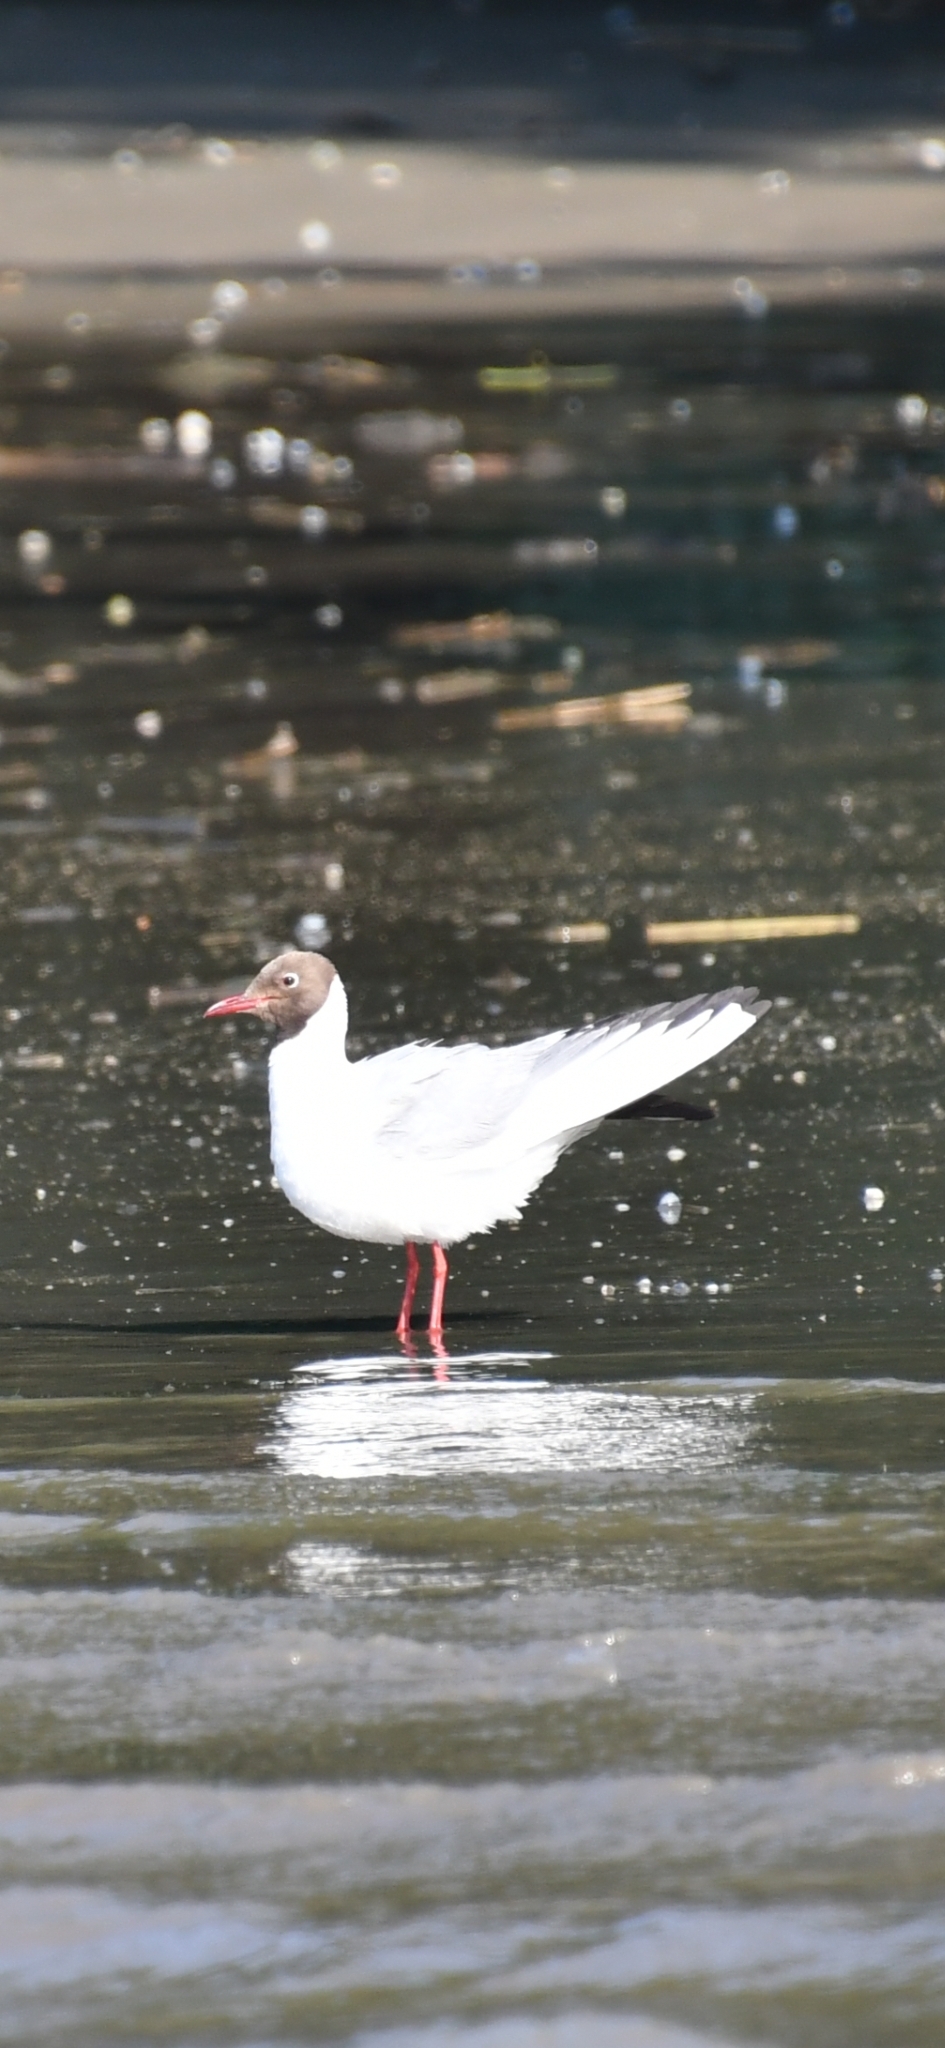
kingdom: Animalia
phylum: Chordata
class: Aves
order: Charadriiformes
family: Laridae
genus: Chroicocephalus
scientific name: Chroicocephalus ridibundus
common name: Black-headed gull
